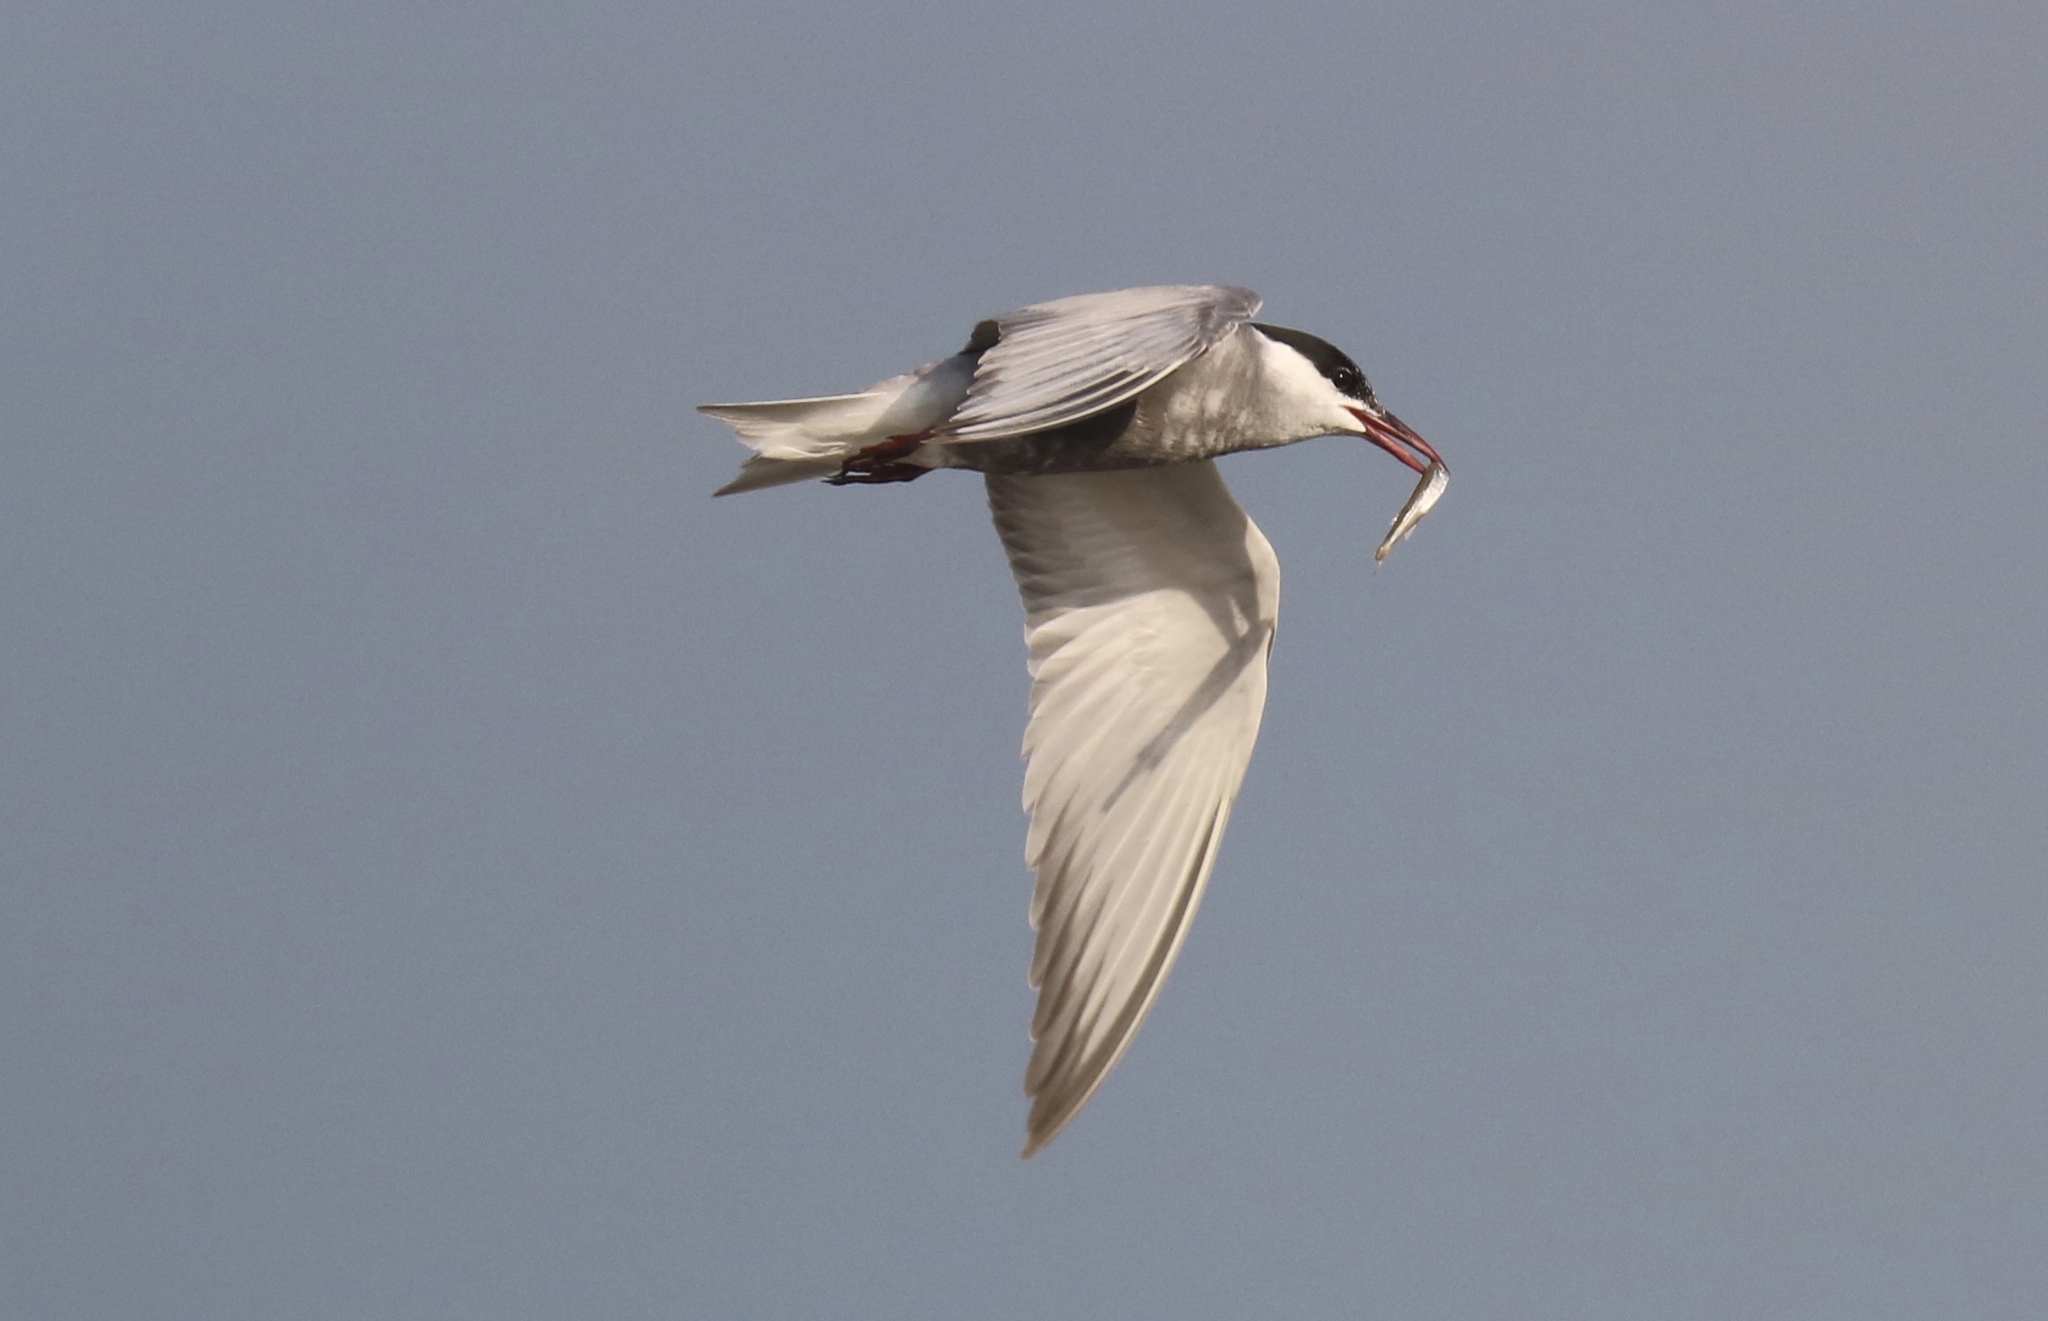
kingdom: Animalia
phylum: Chordata
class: Aves
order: Charadriiformes
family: Laridae
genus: Chlidonias
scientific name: Chlidonias hybrida
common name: Whiskered tern
